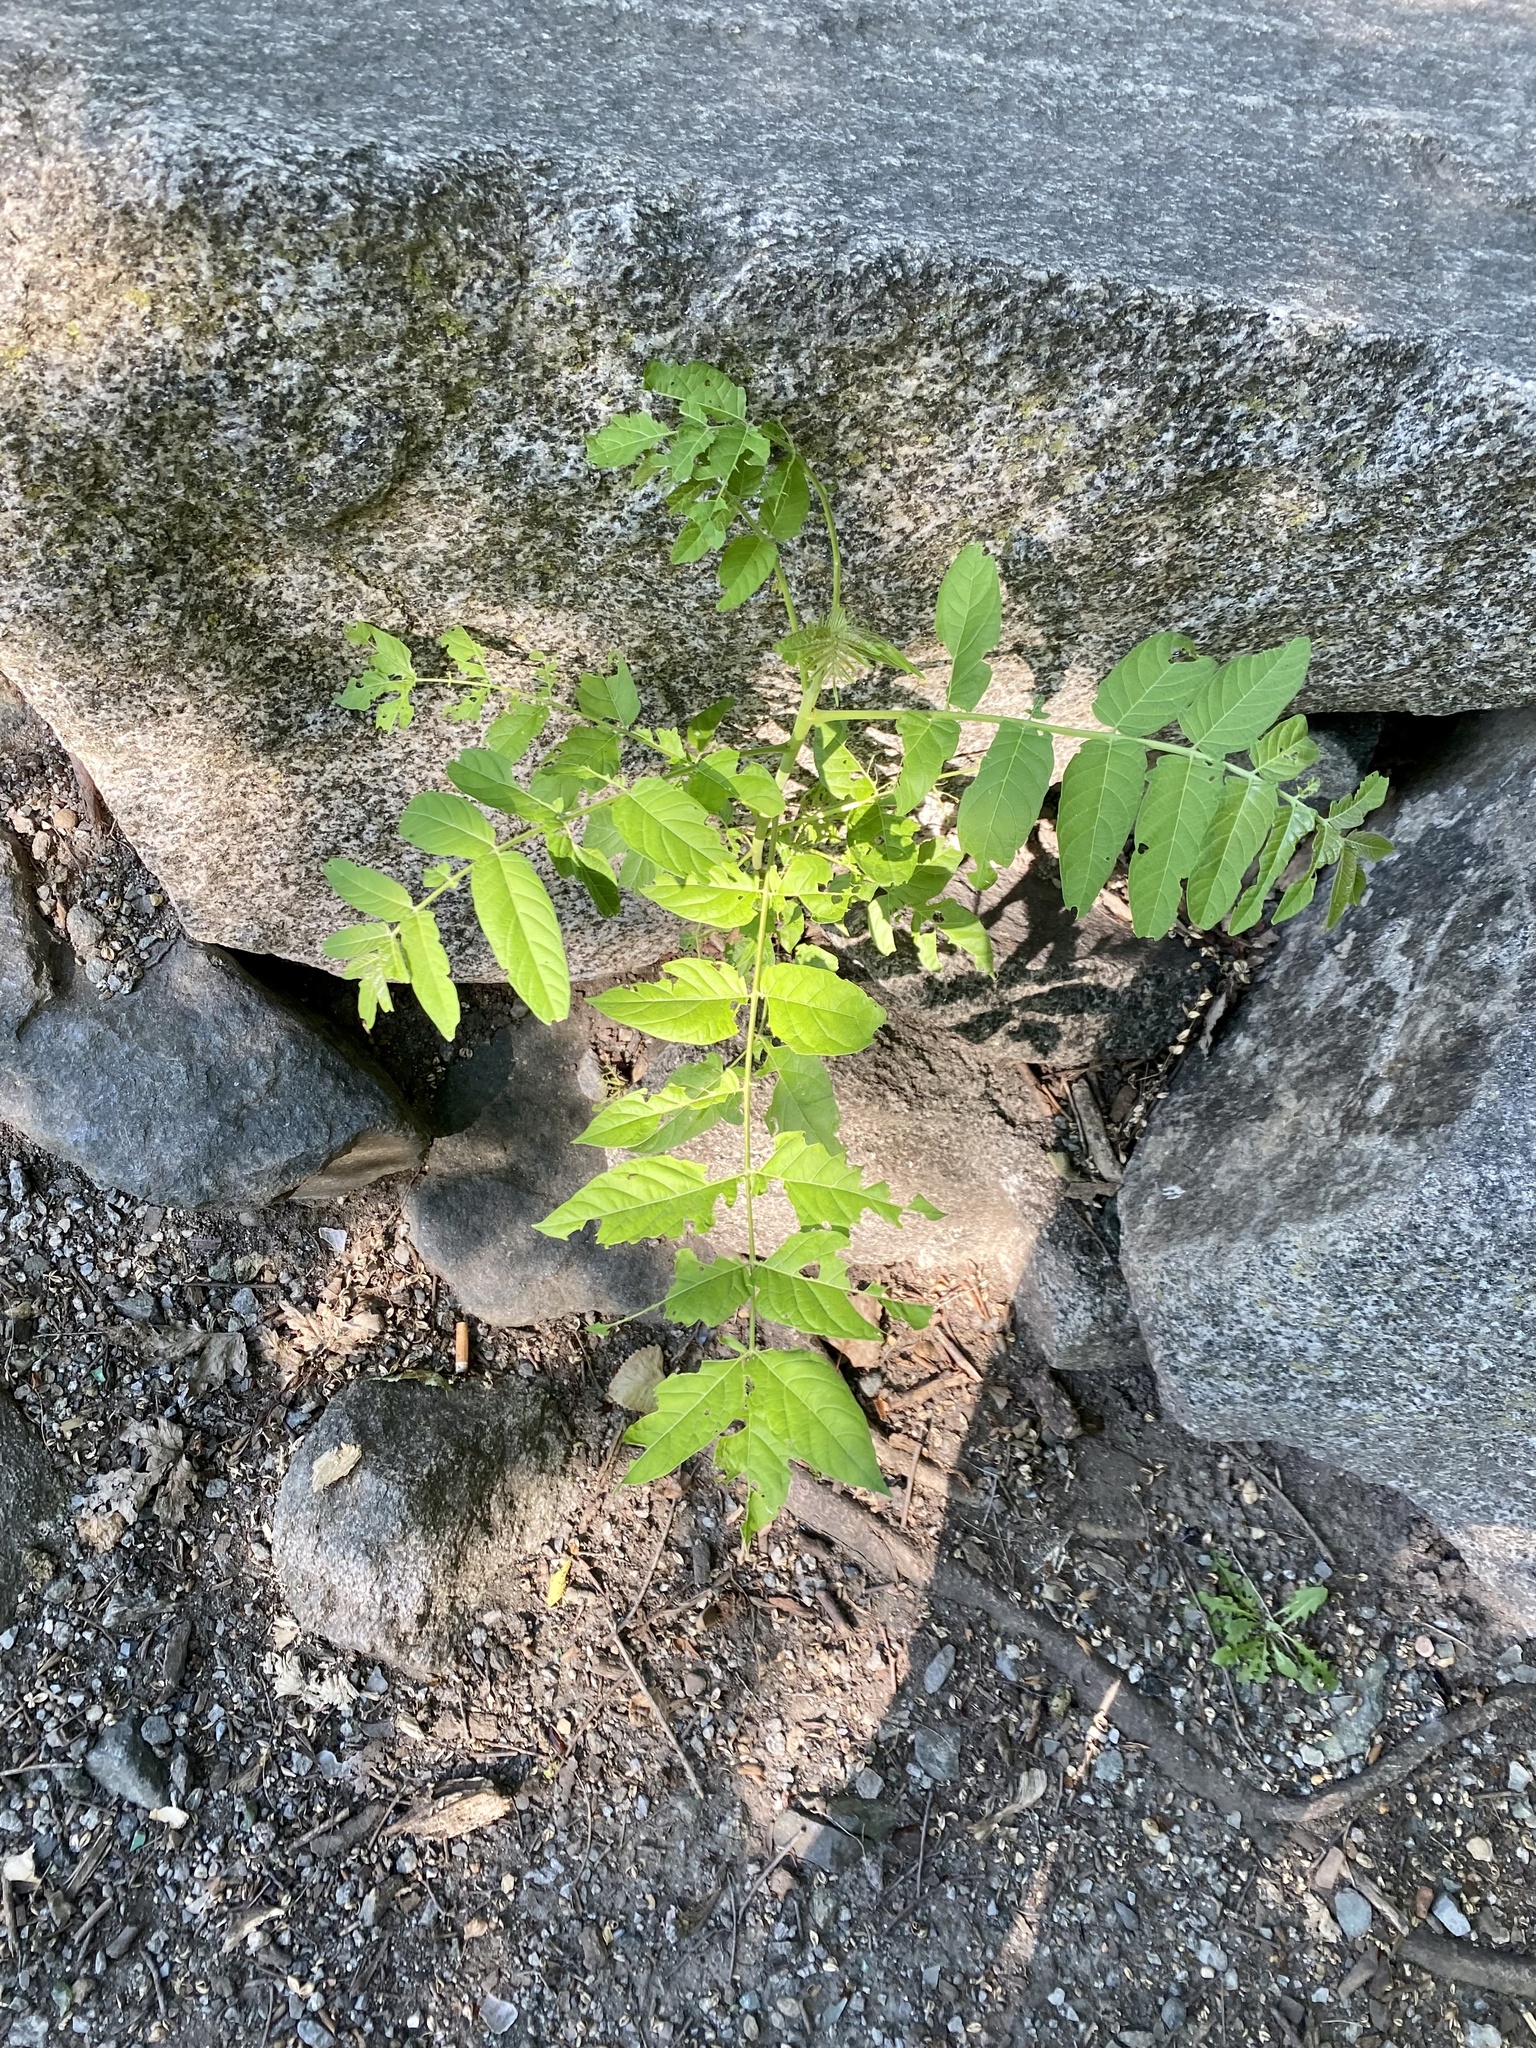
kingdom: Plantae
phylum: Tracheophyta
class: Magnoliopsida
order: Sapindales
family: Simaroubaceae
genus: Ailanthus
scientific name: Ailanthus altissima
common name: Tree-of-heaven
